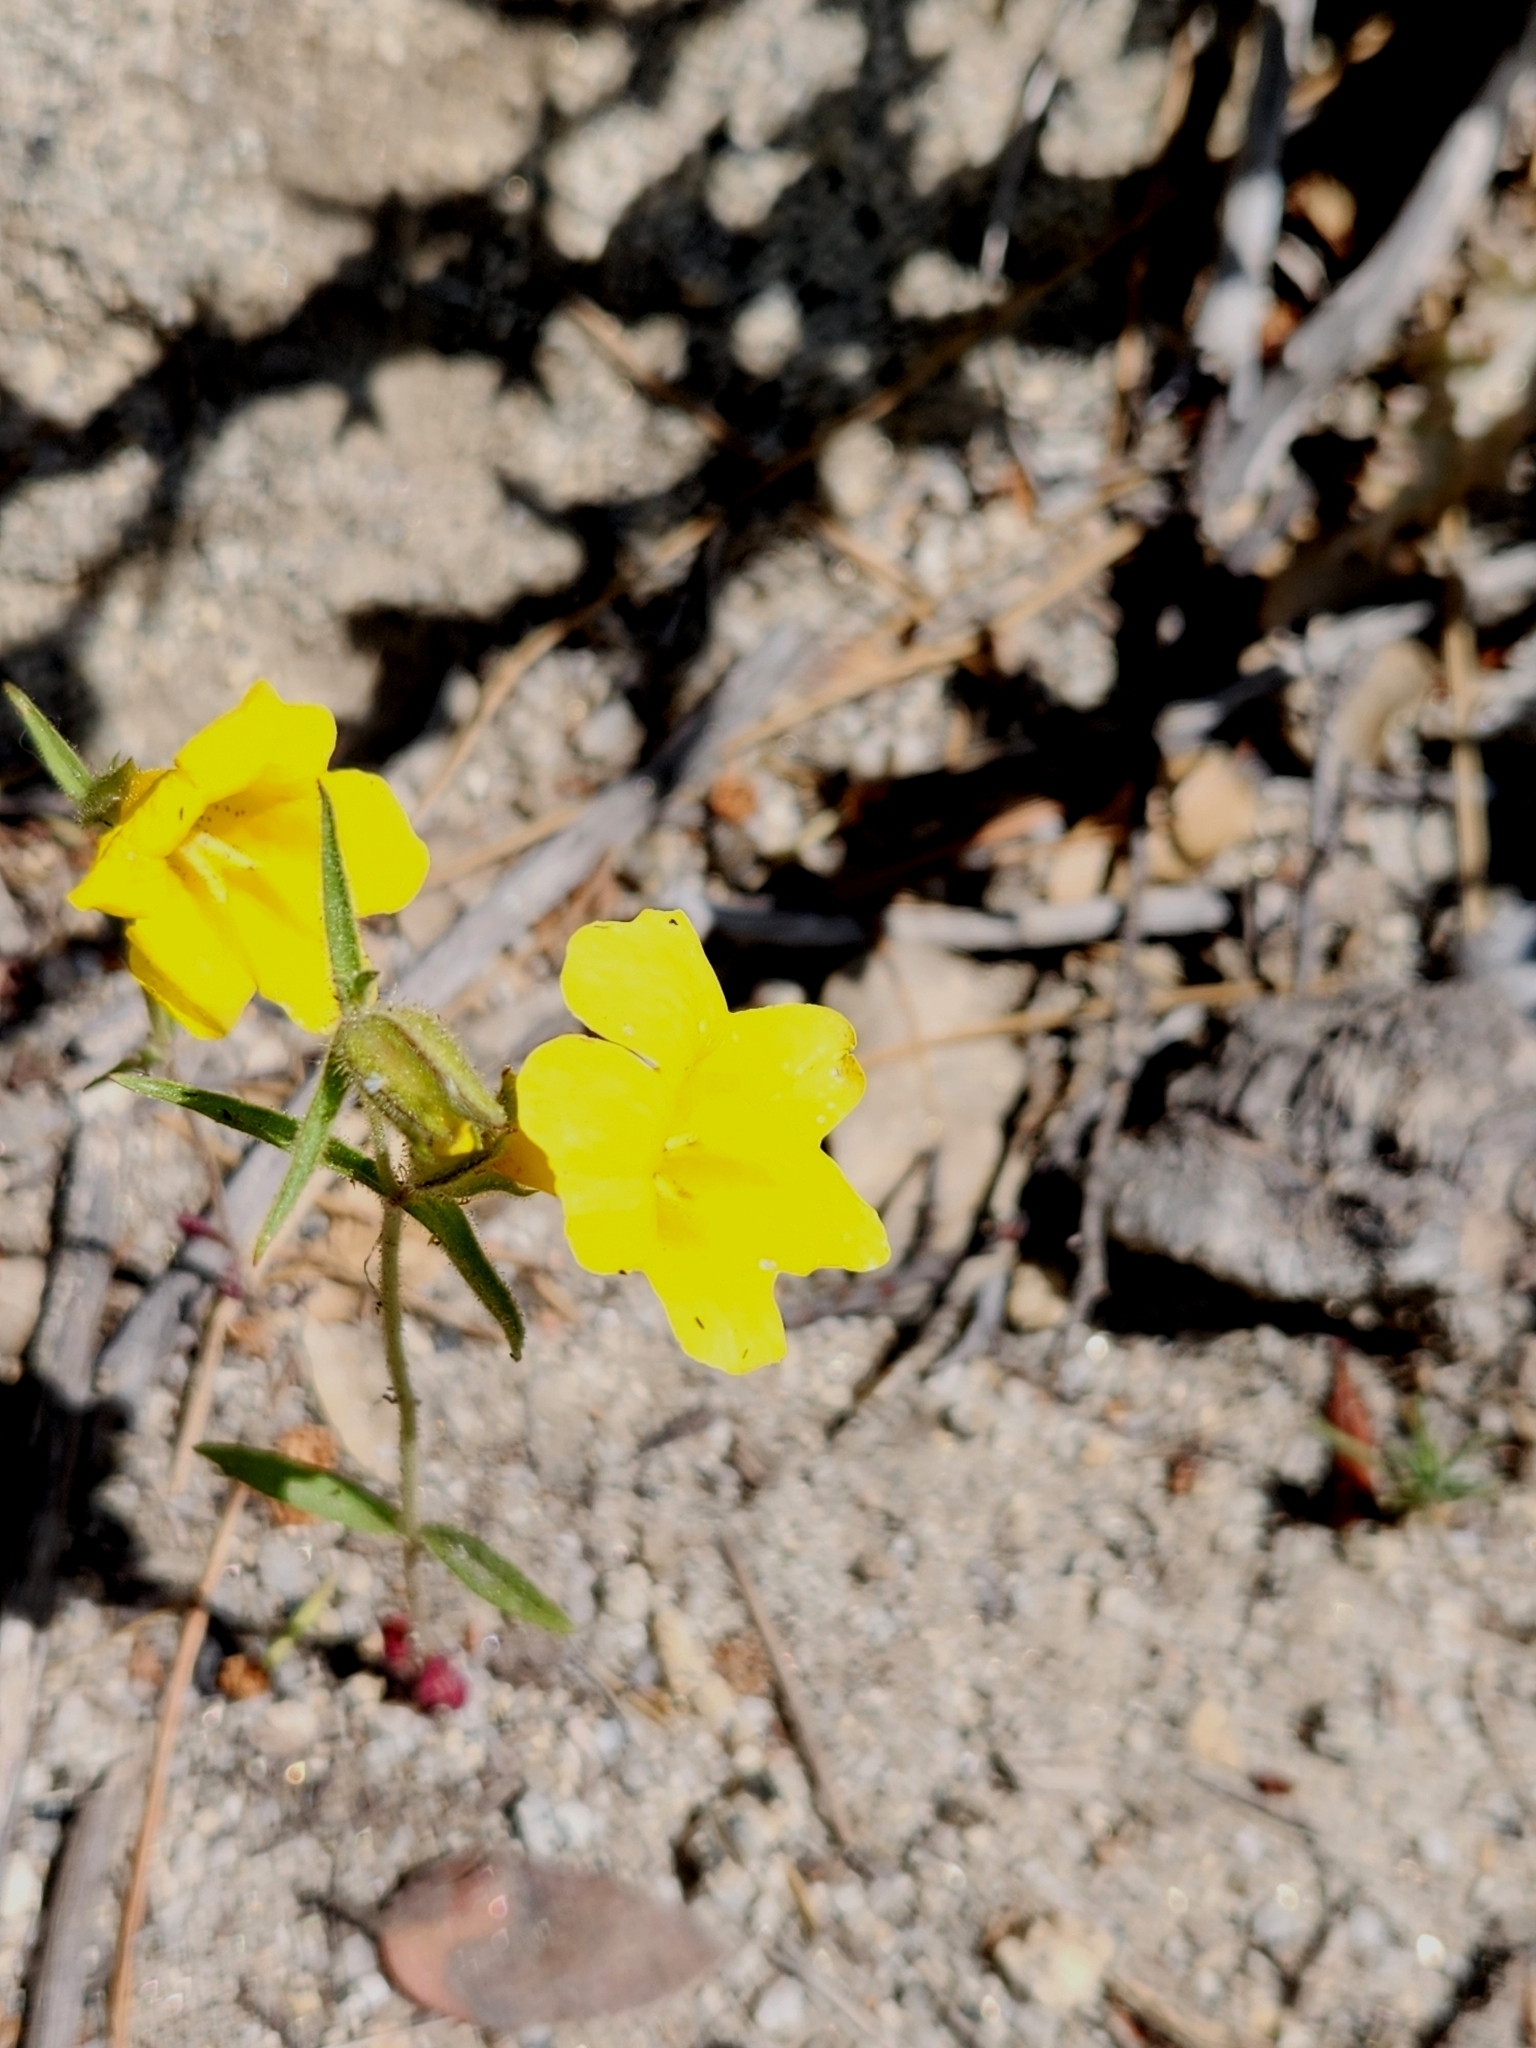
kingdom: Plantae
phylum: Tracheophyta
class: Magnoliopsida
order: Lamiales
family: Phrymaceae
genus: Diplacus
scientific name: Diplacus brevipes
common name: Wide-throat yellow monkey-flower
